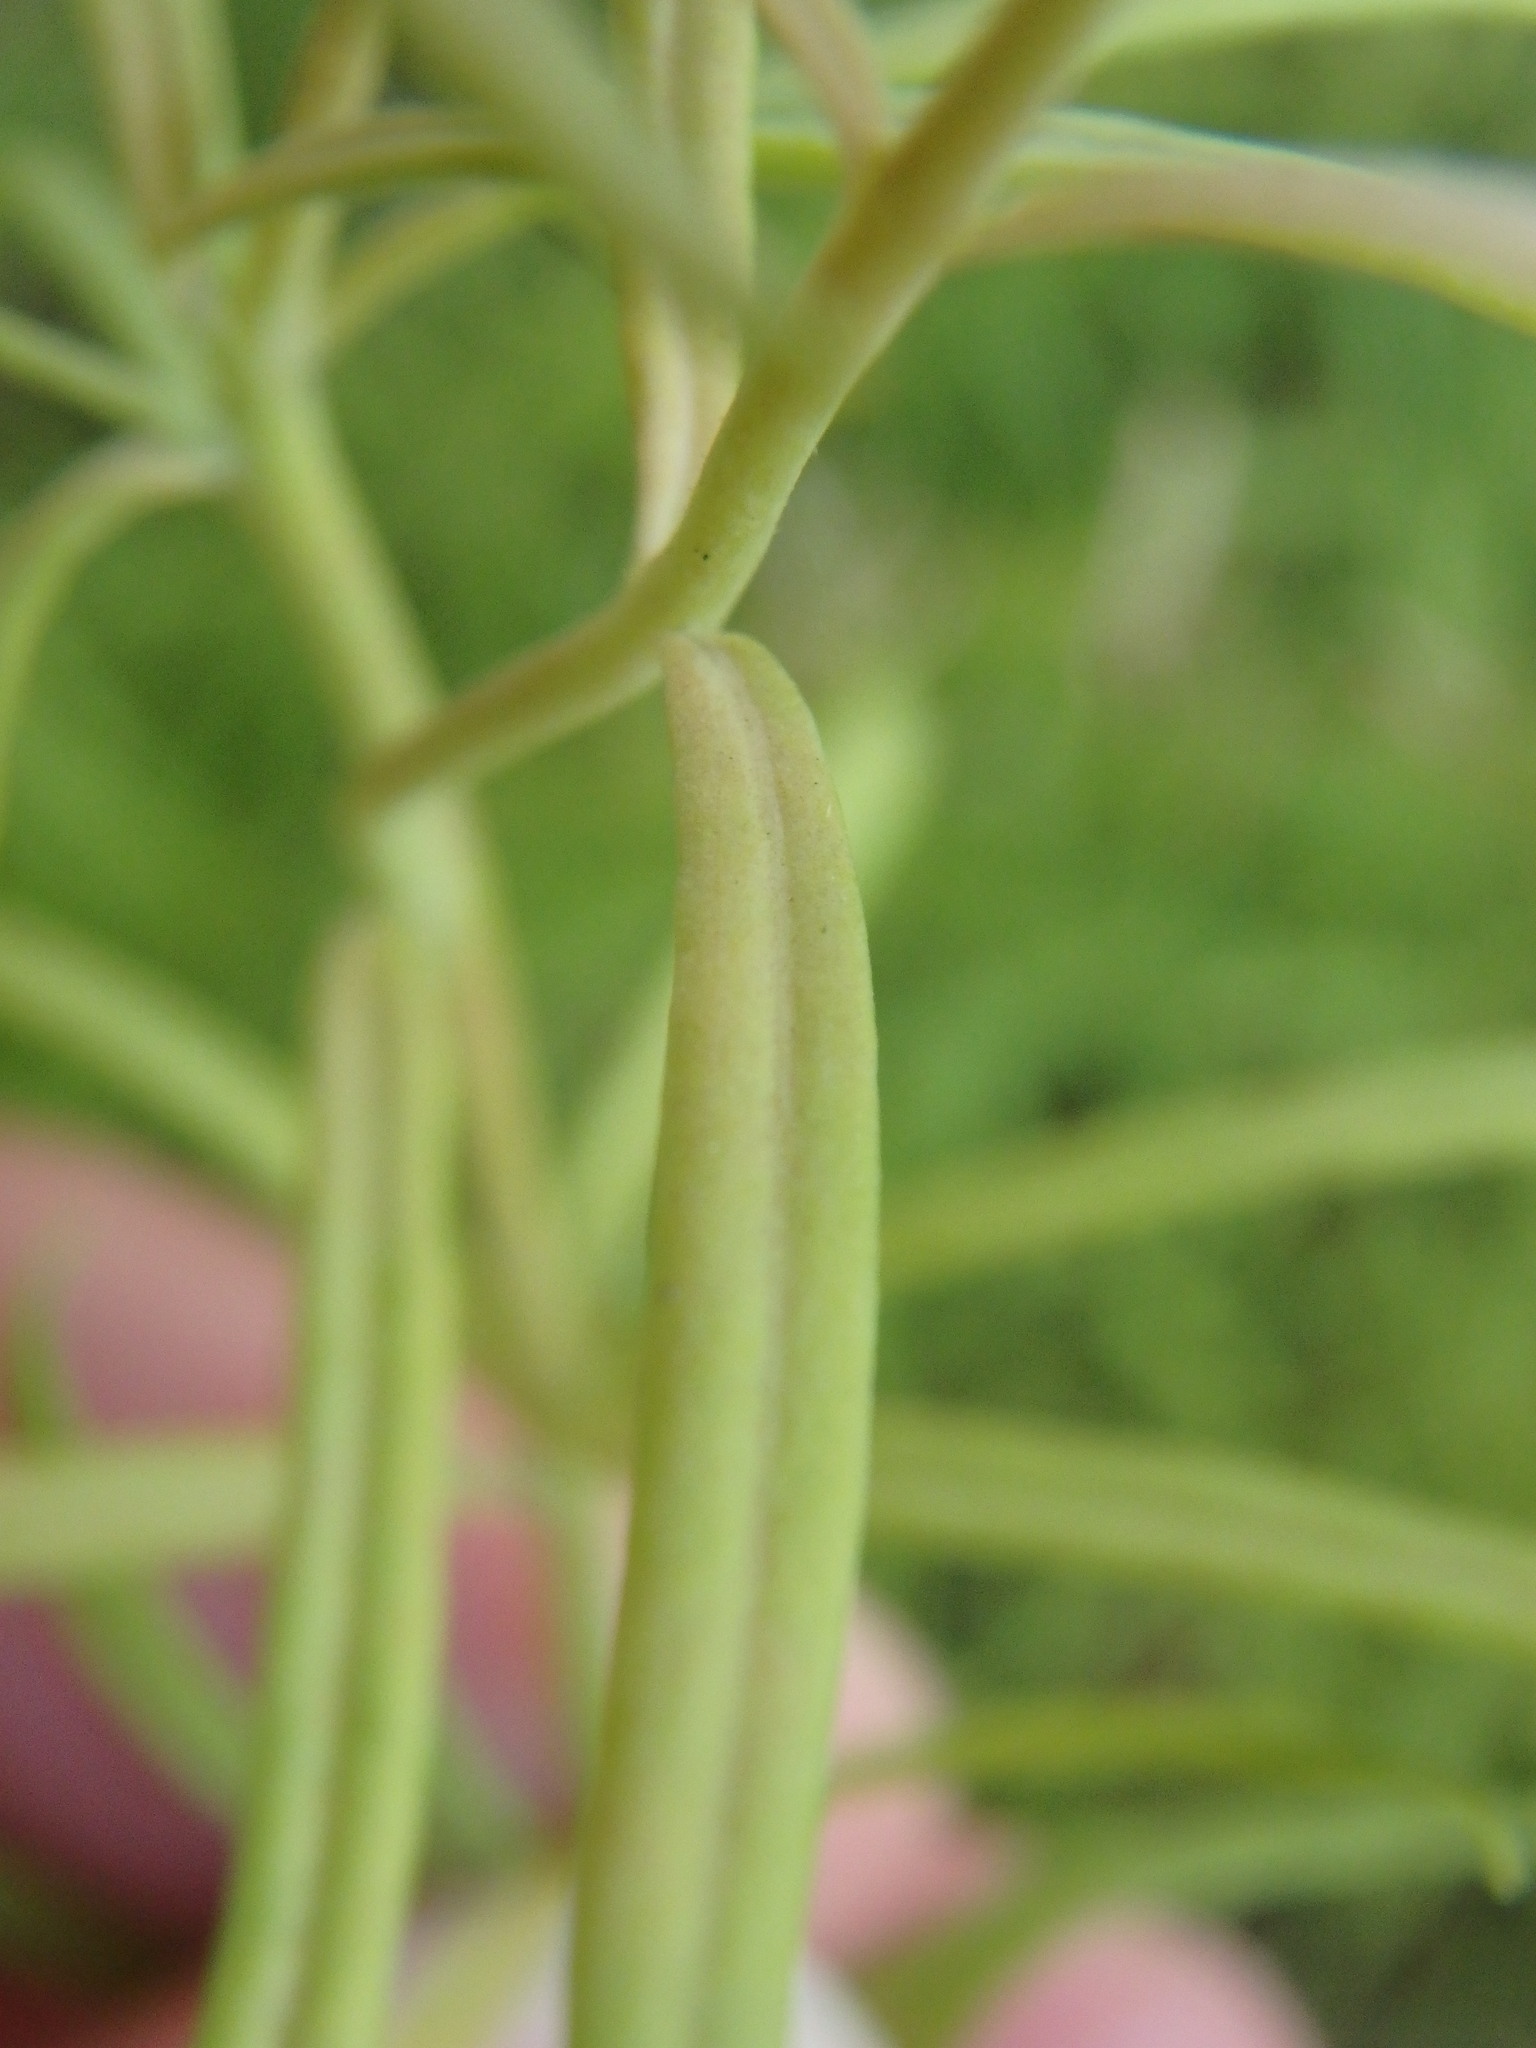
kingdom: Plantae
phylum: Tracheophyta
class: Magnoliopsida
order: Lamiales
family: Plantaginaceae
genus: Linaria
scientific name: Linaria vulgaris
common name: Butter and eggs
